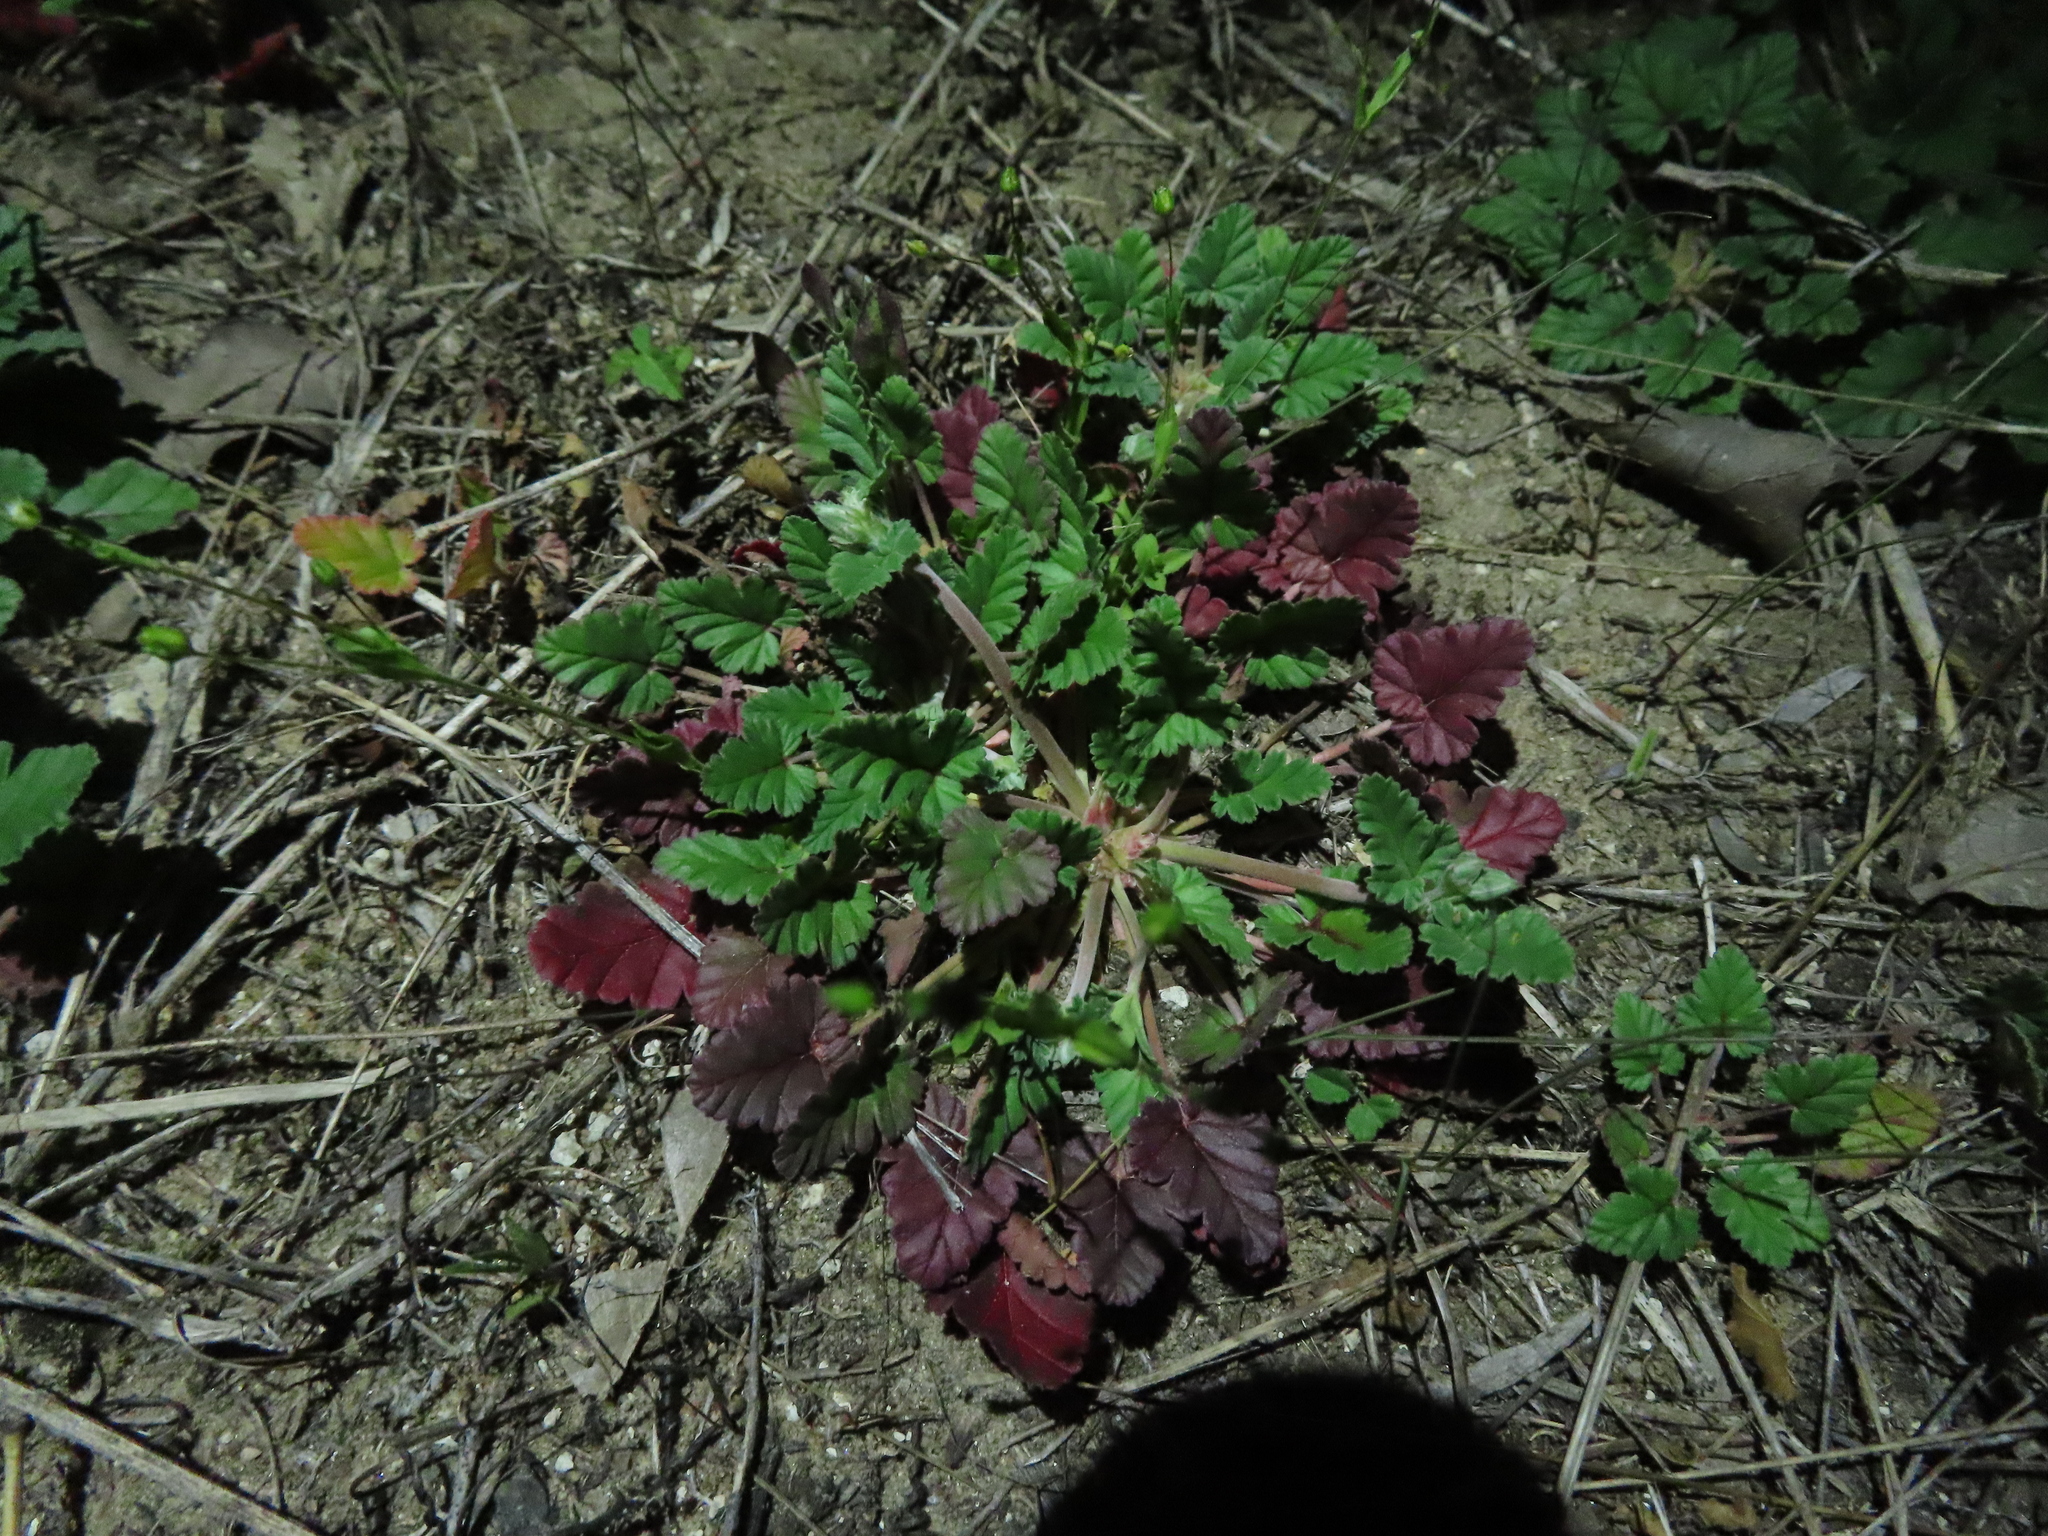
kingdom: Plantae
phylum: Tracheophyta
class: Magnoliopsida
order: Geraniales
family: Geraniaceae
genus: Erodium
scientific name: Erodium texanum
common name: Texas stork's-bill
